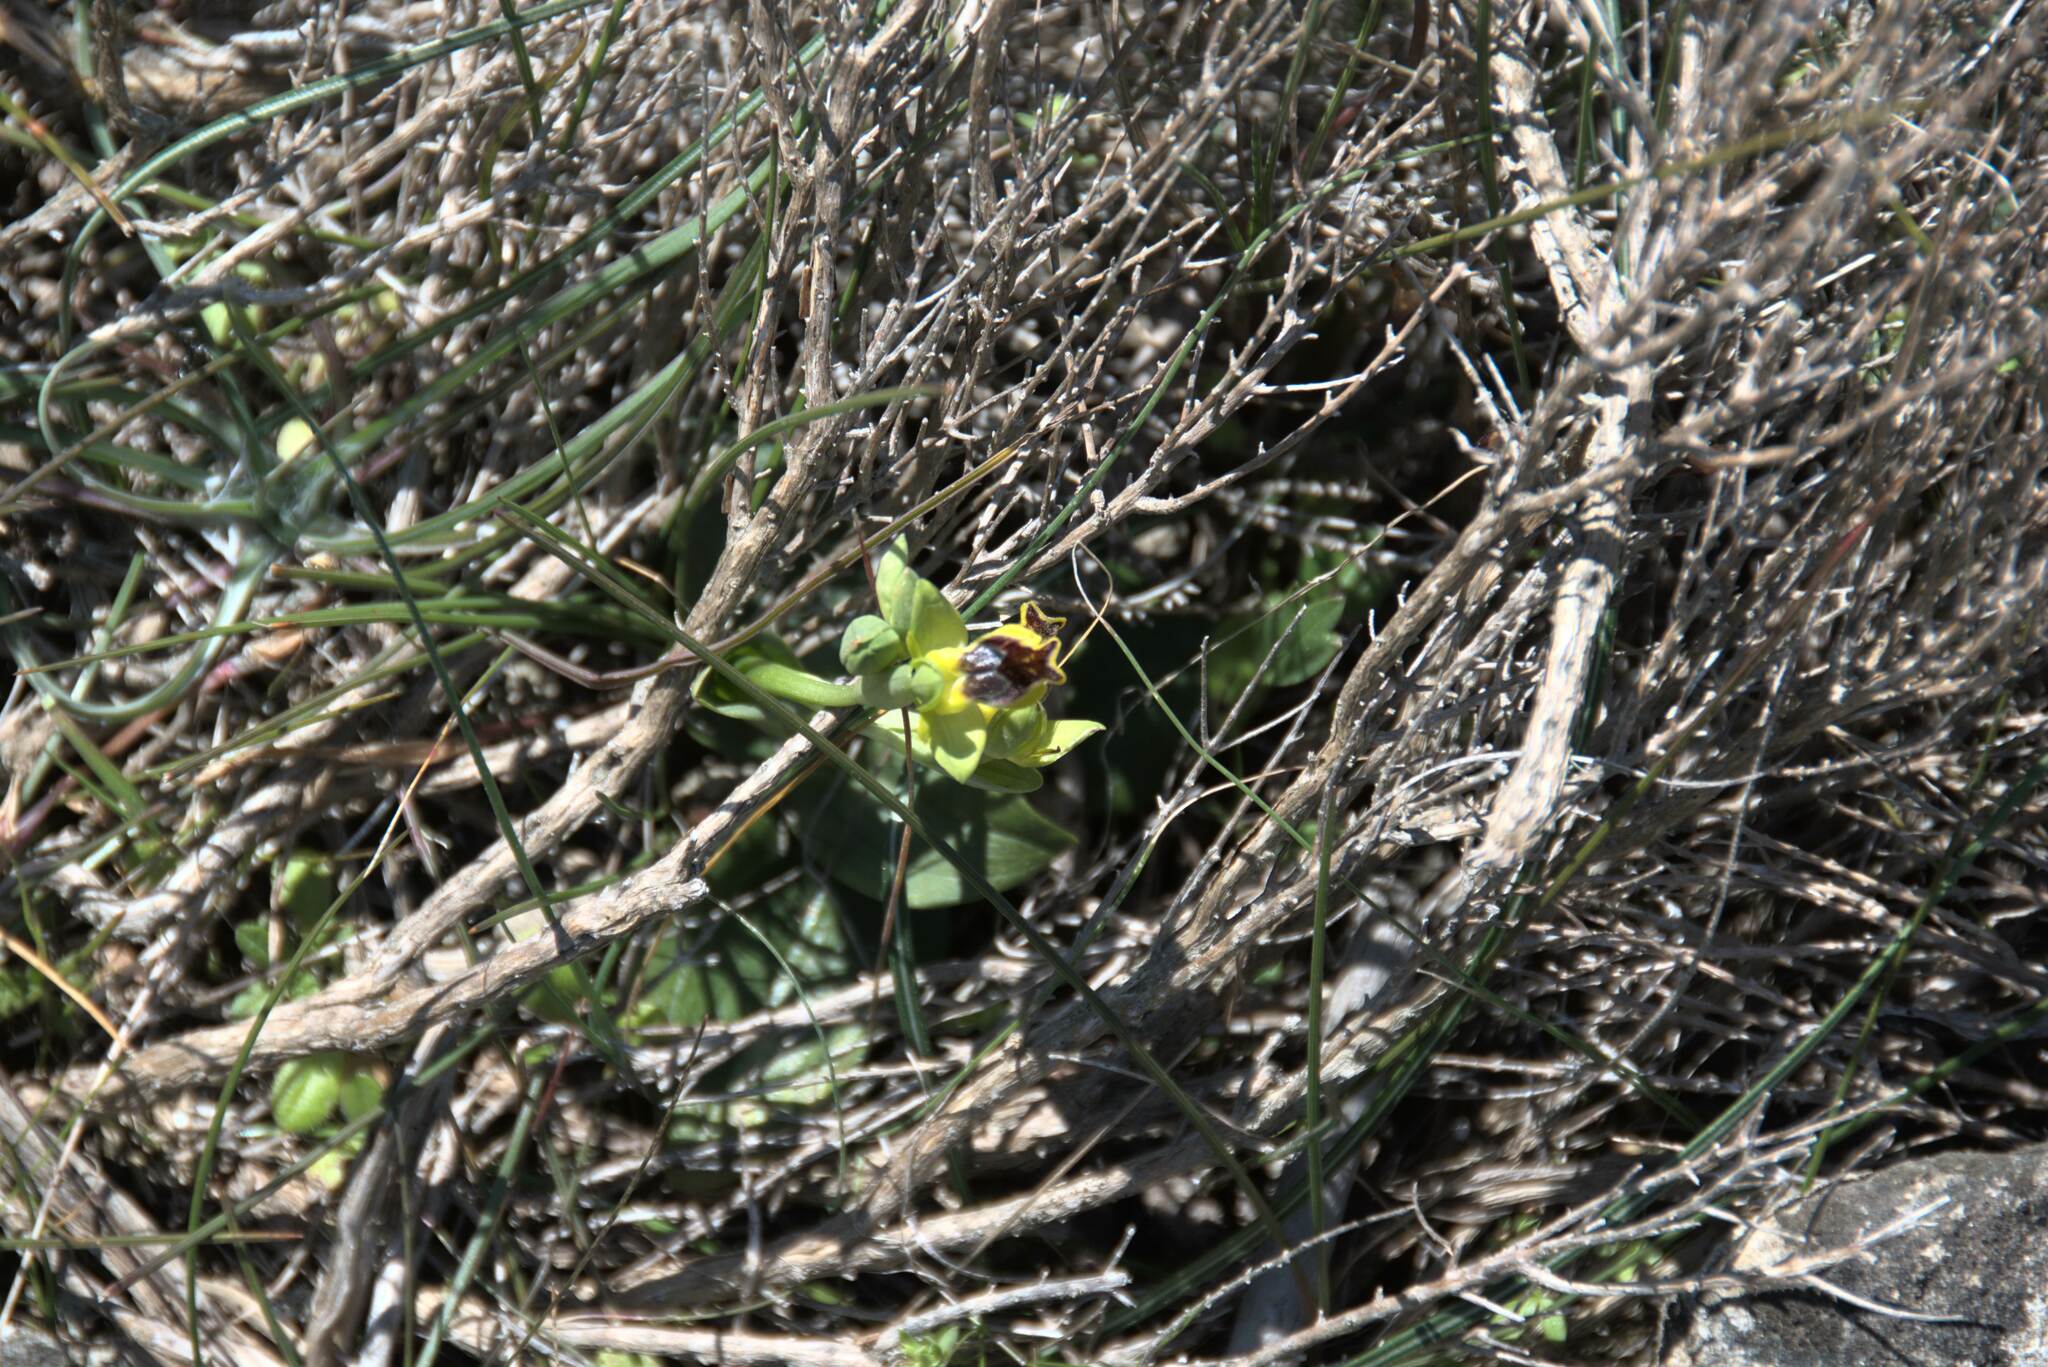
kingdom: Plantae
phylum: Tracheophyta
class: Liliopsida
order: Asparagales
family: Orchidaceae
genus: Ophrys
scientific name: Ophrys lutea
